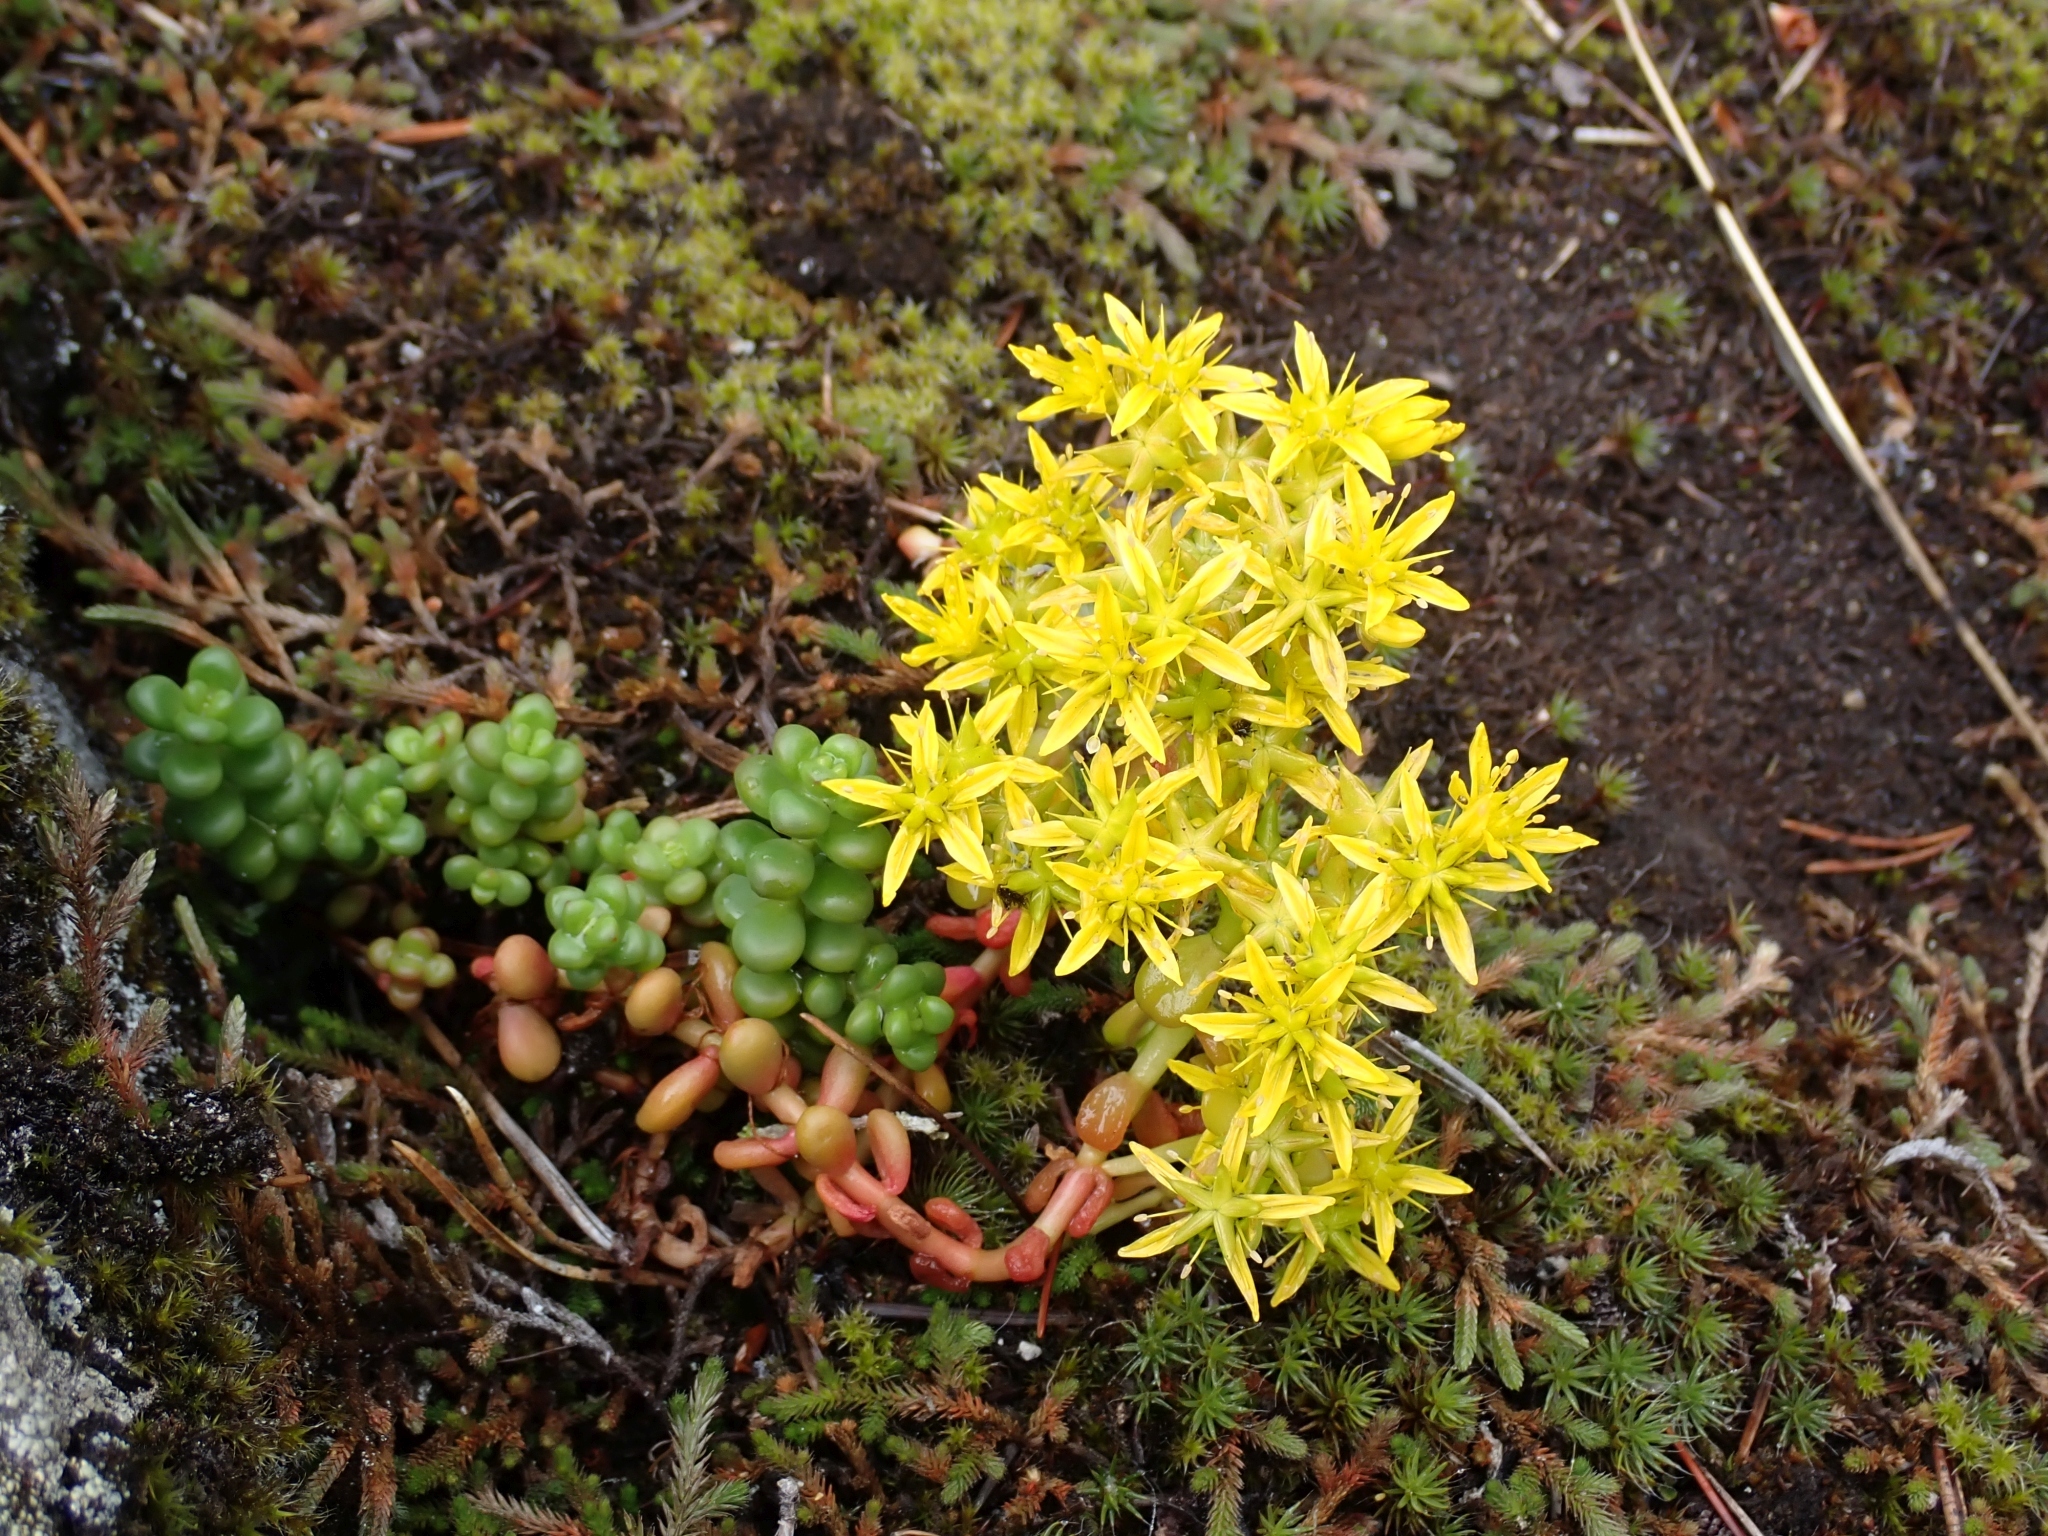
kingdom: Plantae
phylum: Tracheophyta
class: Magnoliopsida
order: Saxifragales
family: Crassulaceae
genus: Sedum
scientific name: Sedum divergens
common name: Cascade stonecrop
